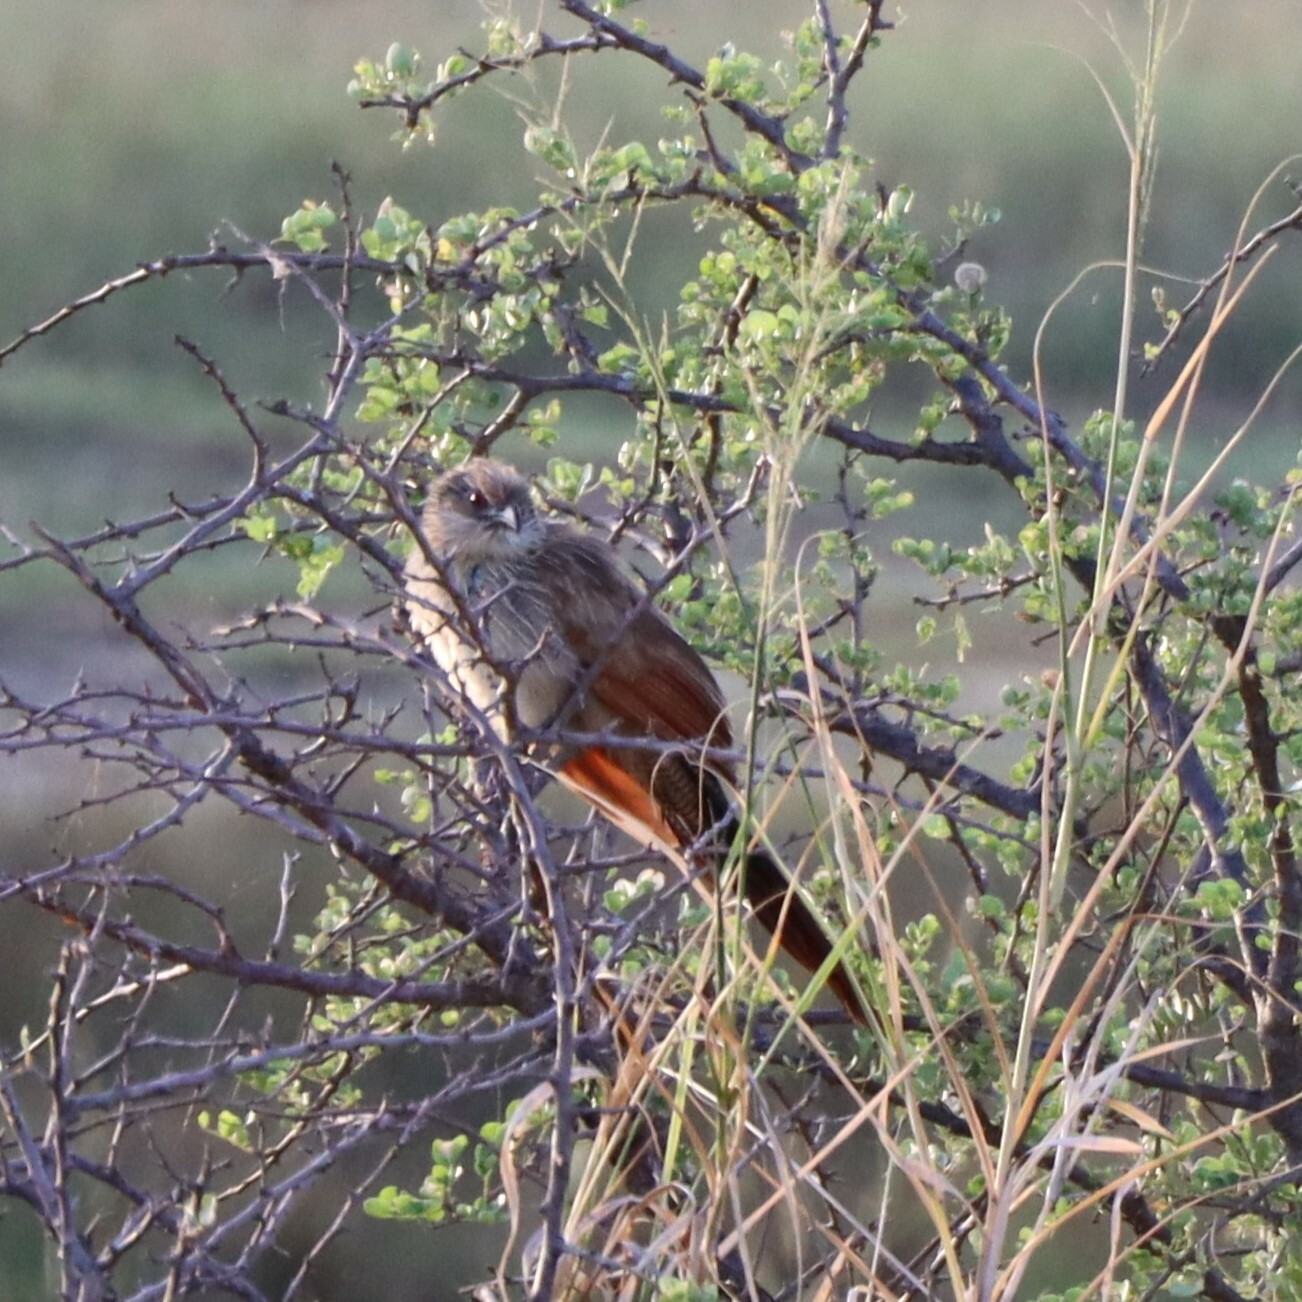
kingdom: Animalia
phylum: Chordata
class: Aves
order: Cuculiformes
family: Cuculidae
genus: Centropus
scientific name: Centropus superciliosus
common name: White-browed coucal
